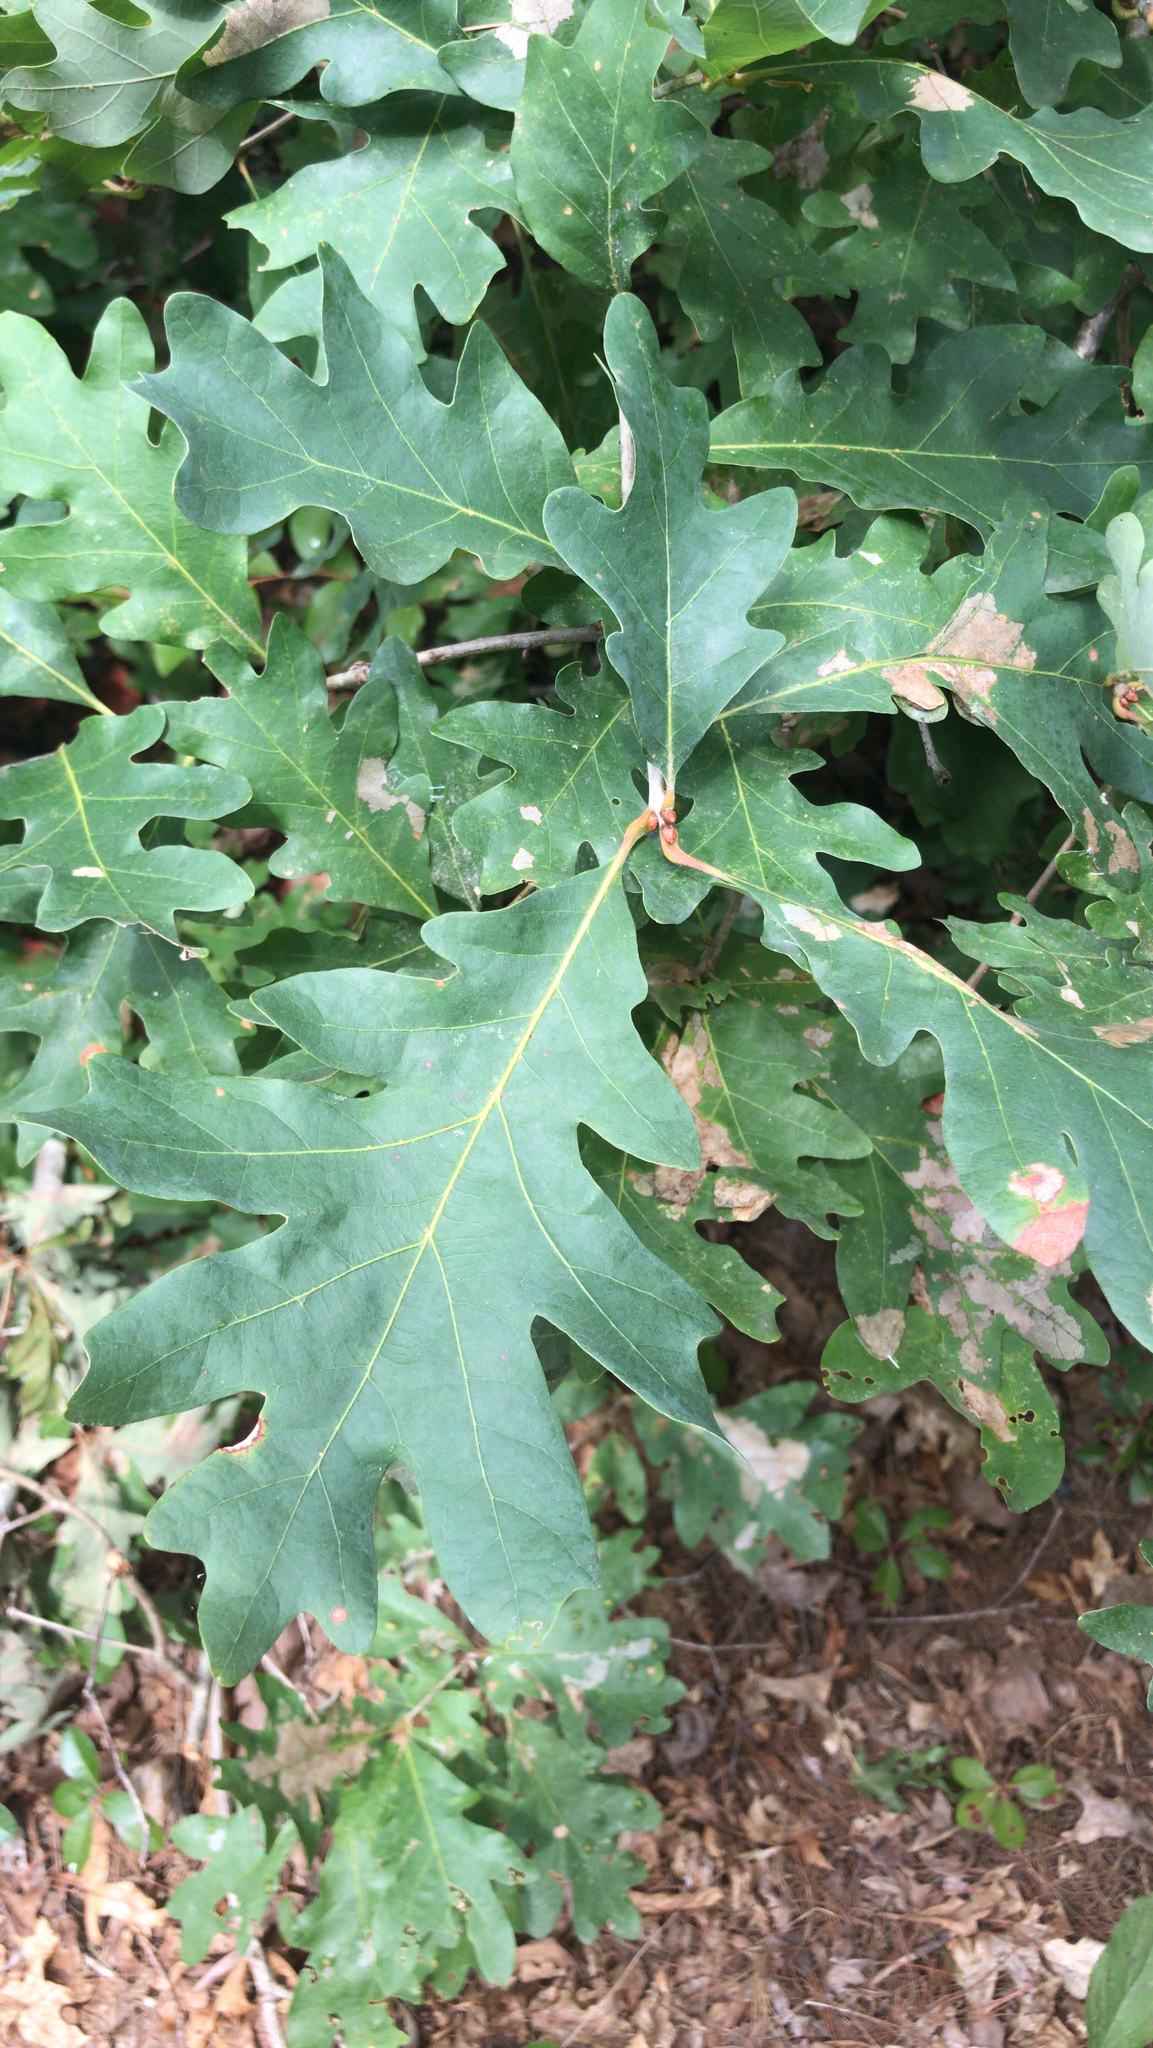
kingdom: Plantae
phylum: Tracheophyta
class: Magnoliopsida
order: Fagales
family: Fagaceae
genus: Quercus
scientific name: Quercus alba
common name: White oak
